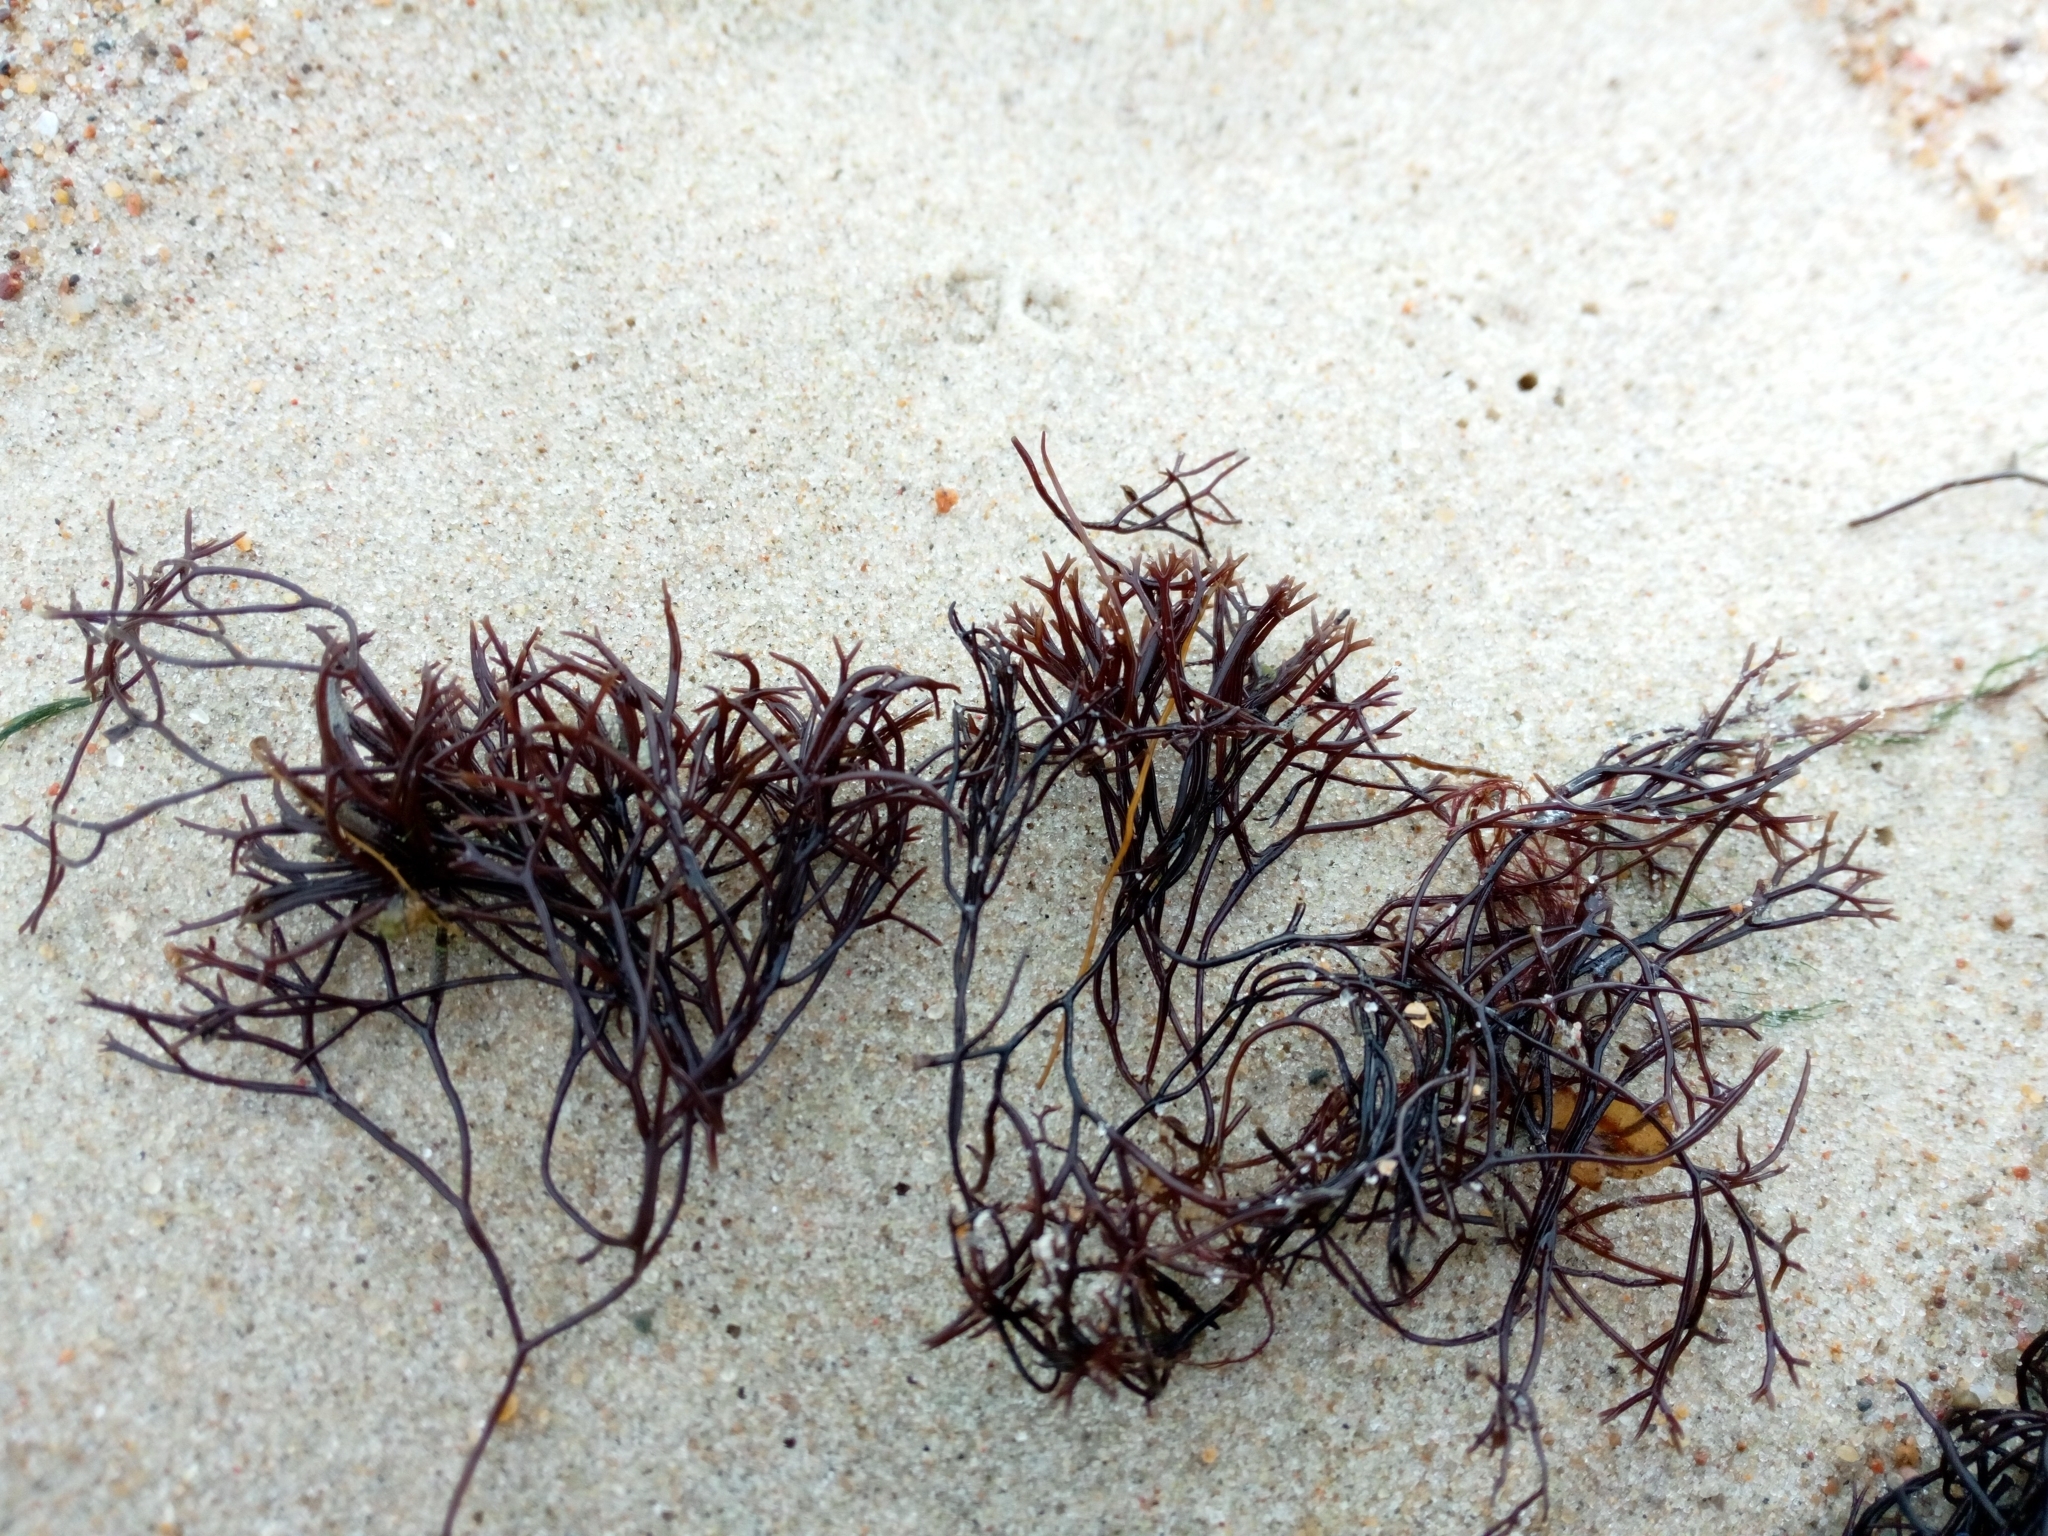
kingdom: Plantae
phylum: Rhodophyta
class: Florideophyceae
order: Gigartinales
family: Furcellariaceae
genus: Furcellaria
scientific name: Furcellaria lumbricalis
